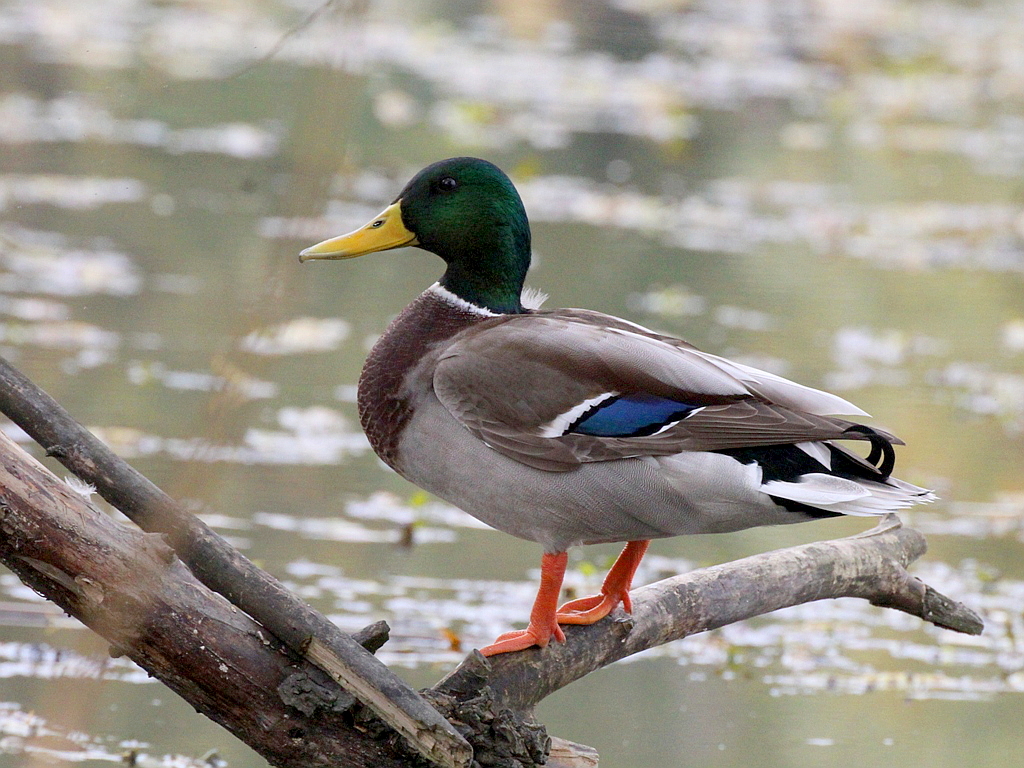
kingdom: Animalia
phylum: Chordata
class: Aves
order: Anseriformes
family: Anatidae
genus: Anas
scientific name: Anas platyrhynchos
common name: Mallard
